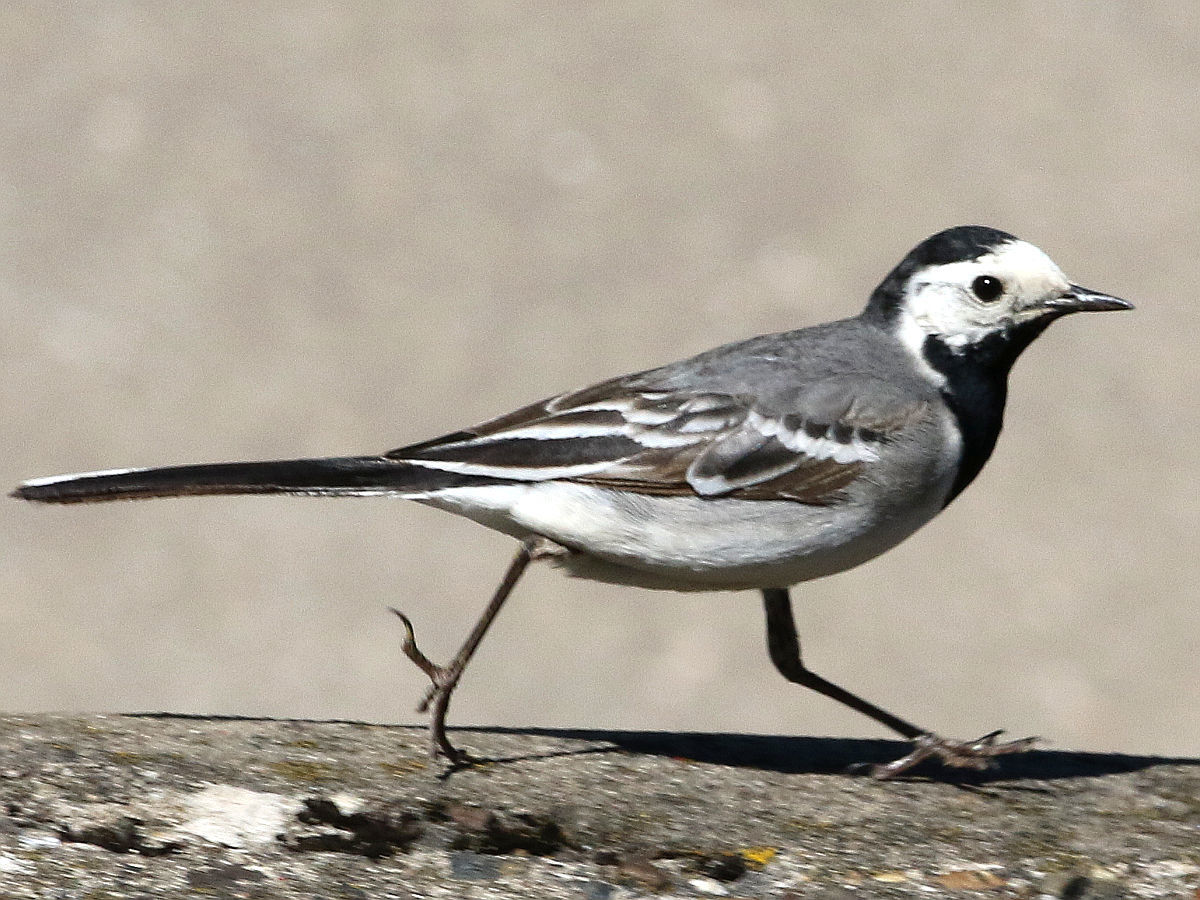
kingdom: Animalia
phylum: Chordata
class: Aves
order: Passeriformes
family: Motacillidae
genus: Motacilla
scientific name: Motacilla alba
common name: White wagtail
